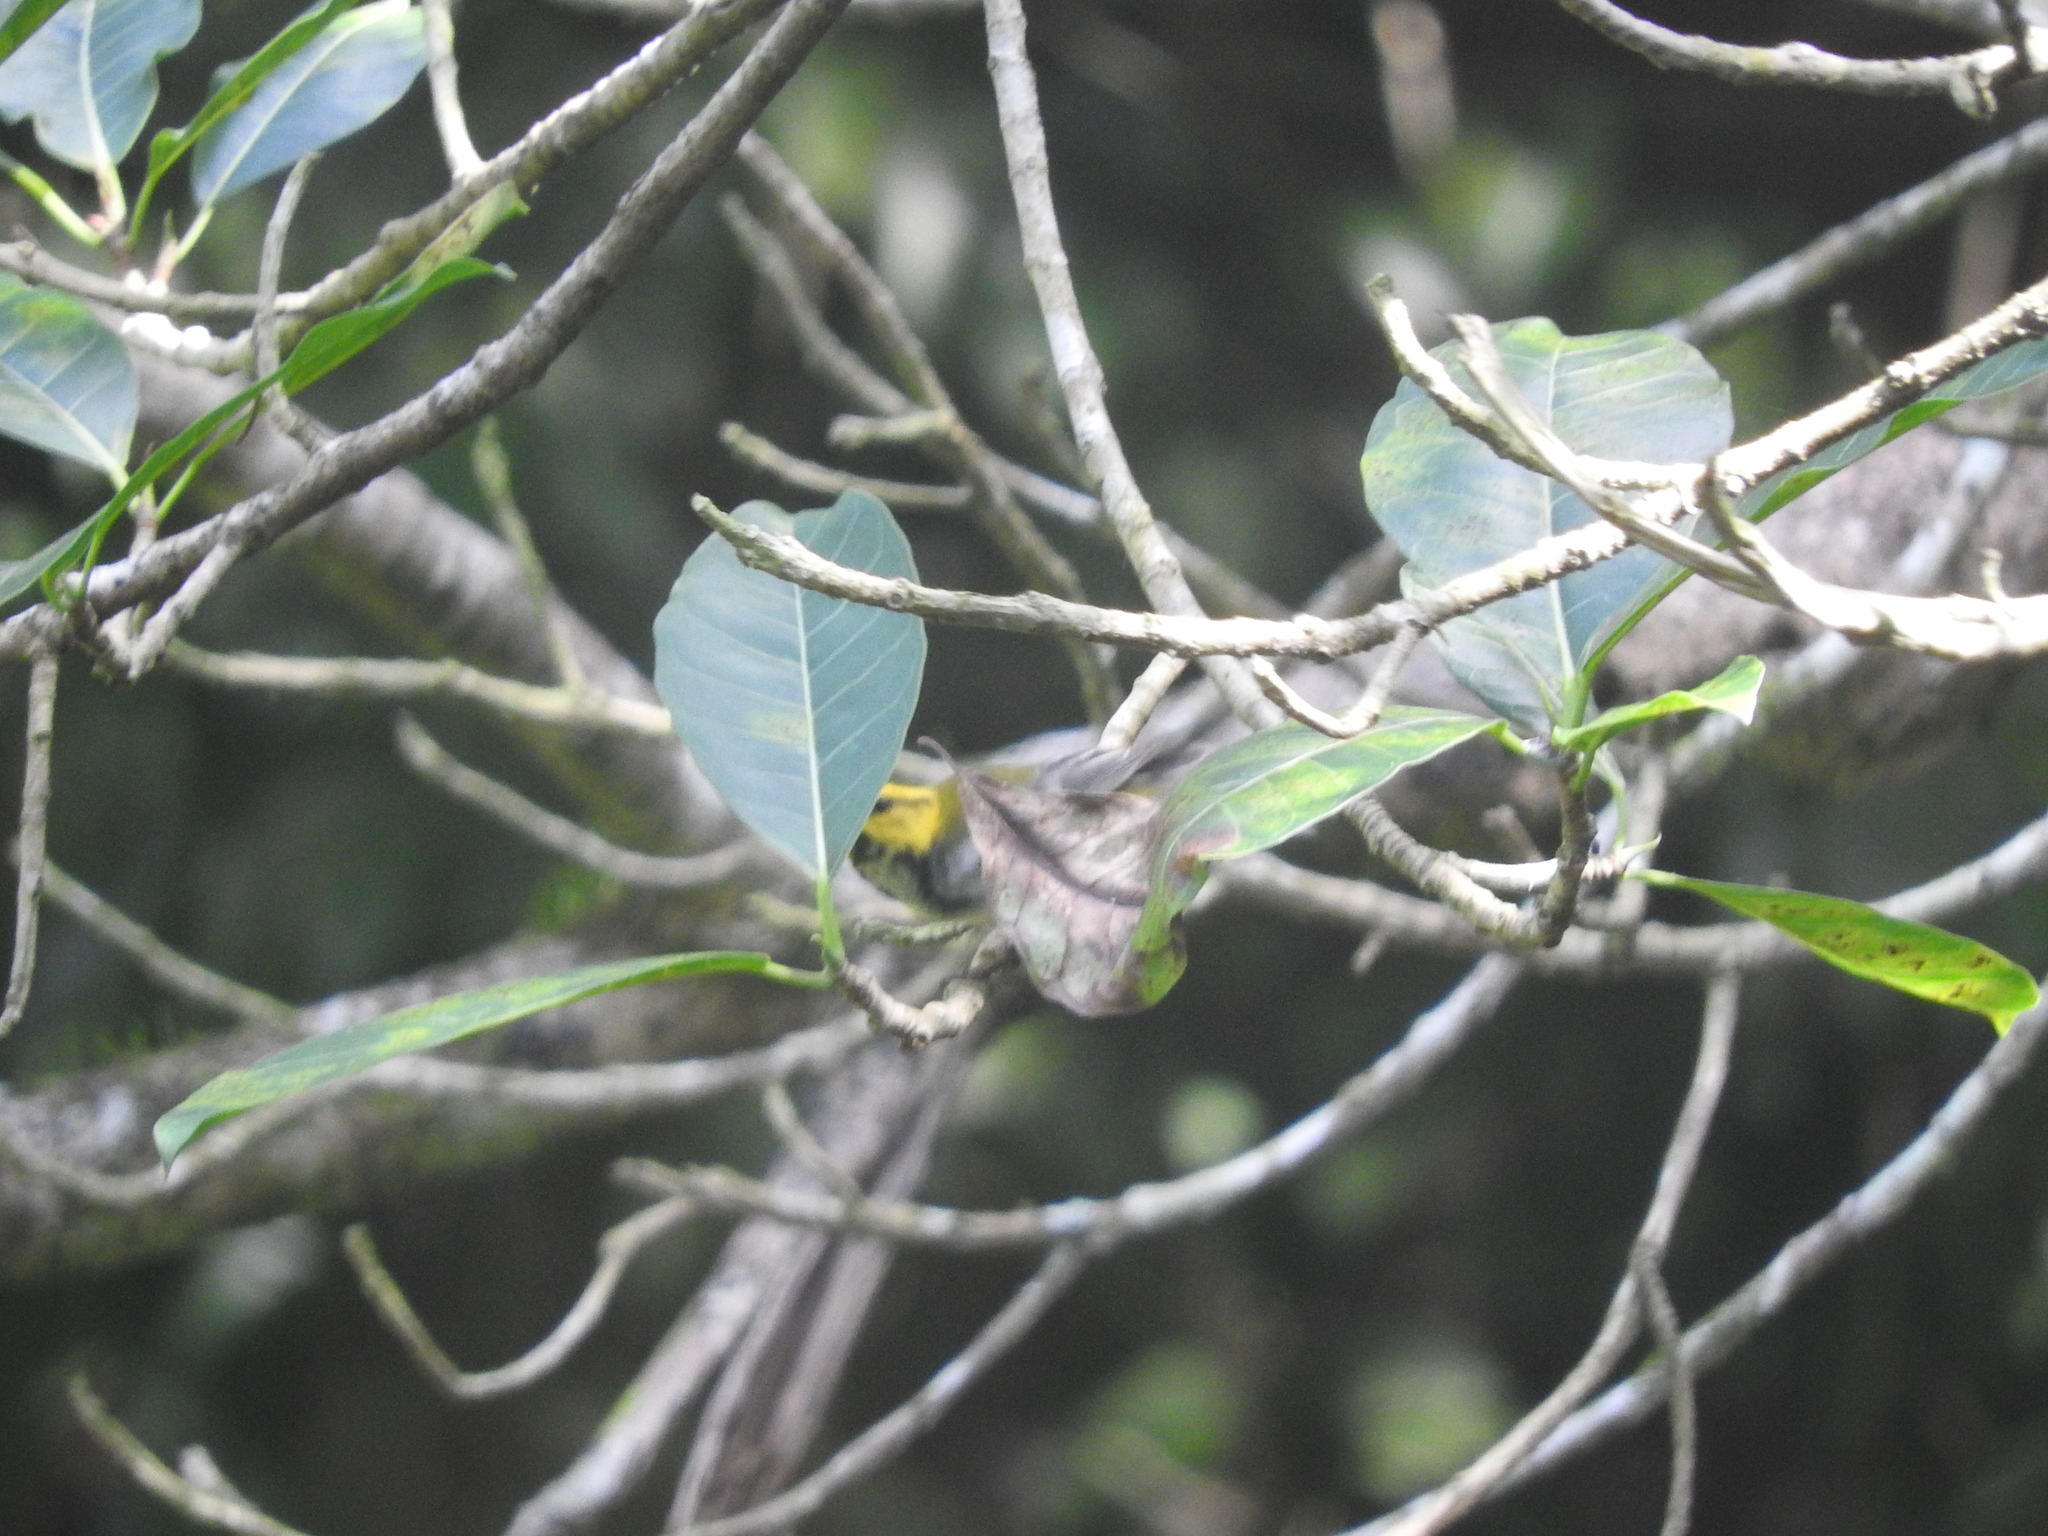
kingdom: Animalia
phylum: Chordata
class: Aves
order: Passeriformes
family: Parulidae
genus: Setophaga
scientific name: Setophaga virens
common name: Black-throated green warbler
